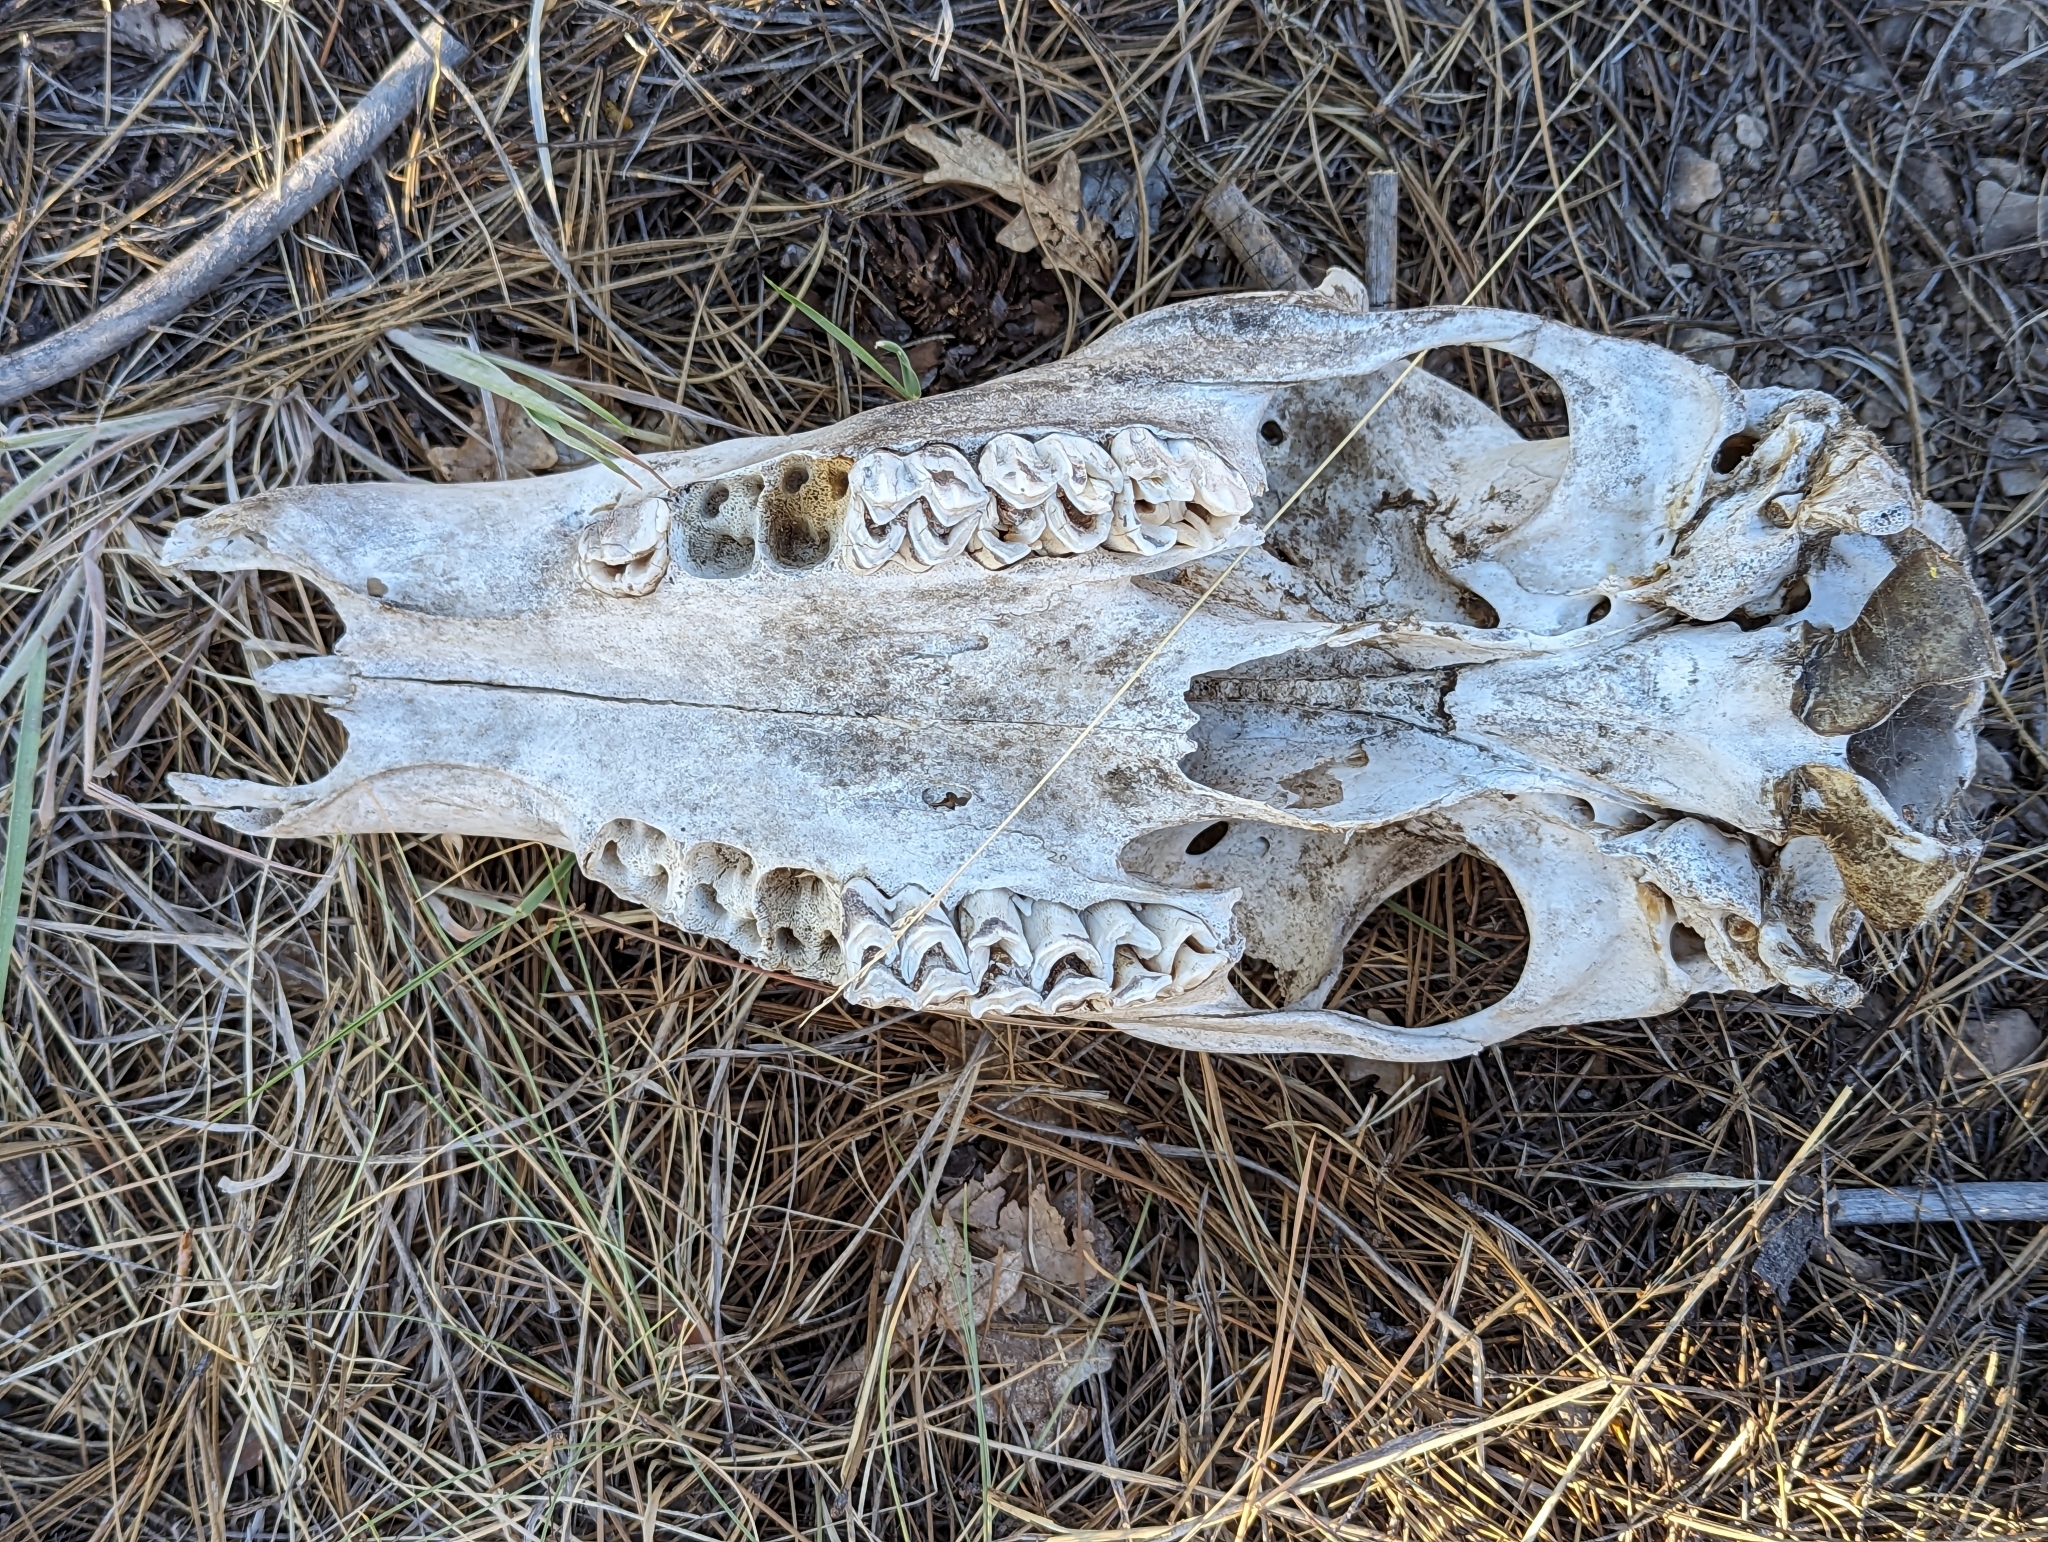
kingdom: Animalia
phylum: Chordata
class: Mammalia
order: Artiodactyla
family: Cervidae
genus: Cervus
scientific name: Cervus elaphus
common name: Red deer
